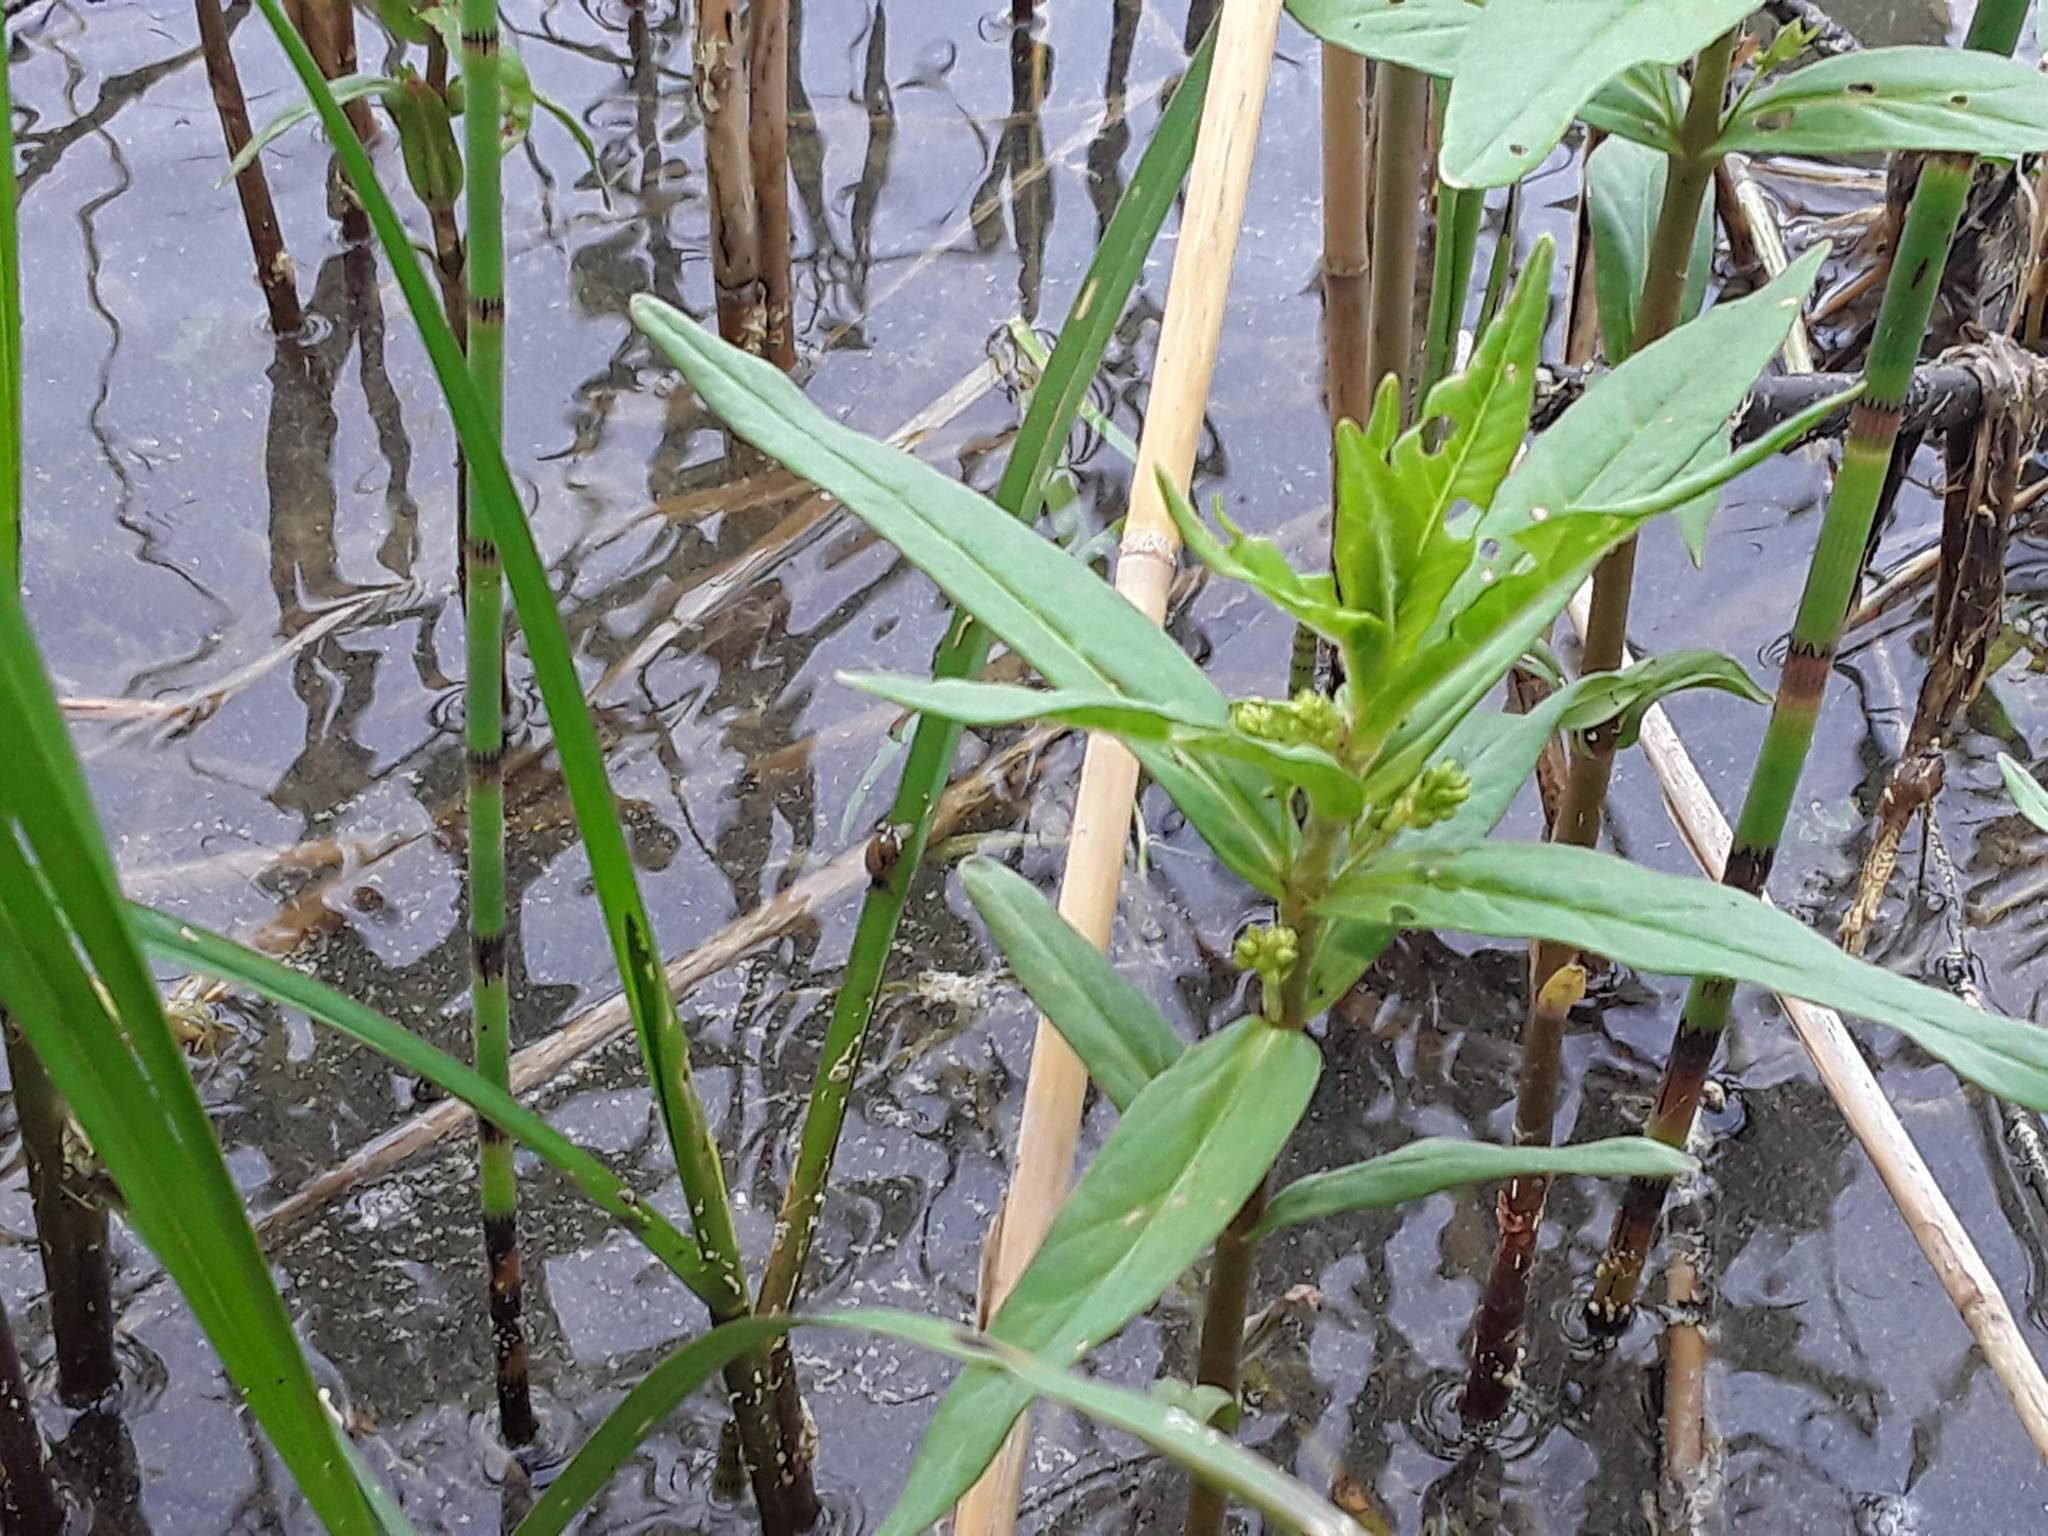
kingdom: Plantae
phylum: Tracheophyta
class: Magnoliopsida
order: Ericales
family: Primulaceae
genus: Lysimachia
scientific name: Lysimachia thyrsiflora
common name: Tufted loosestrife
